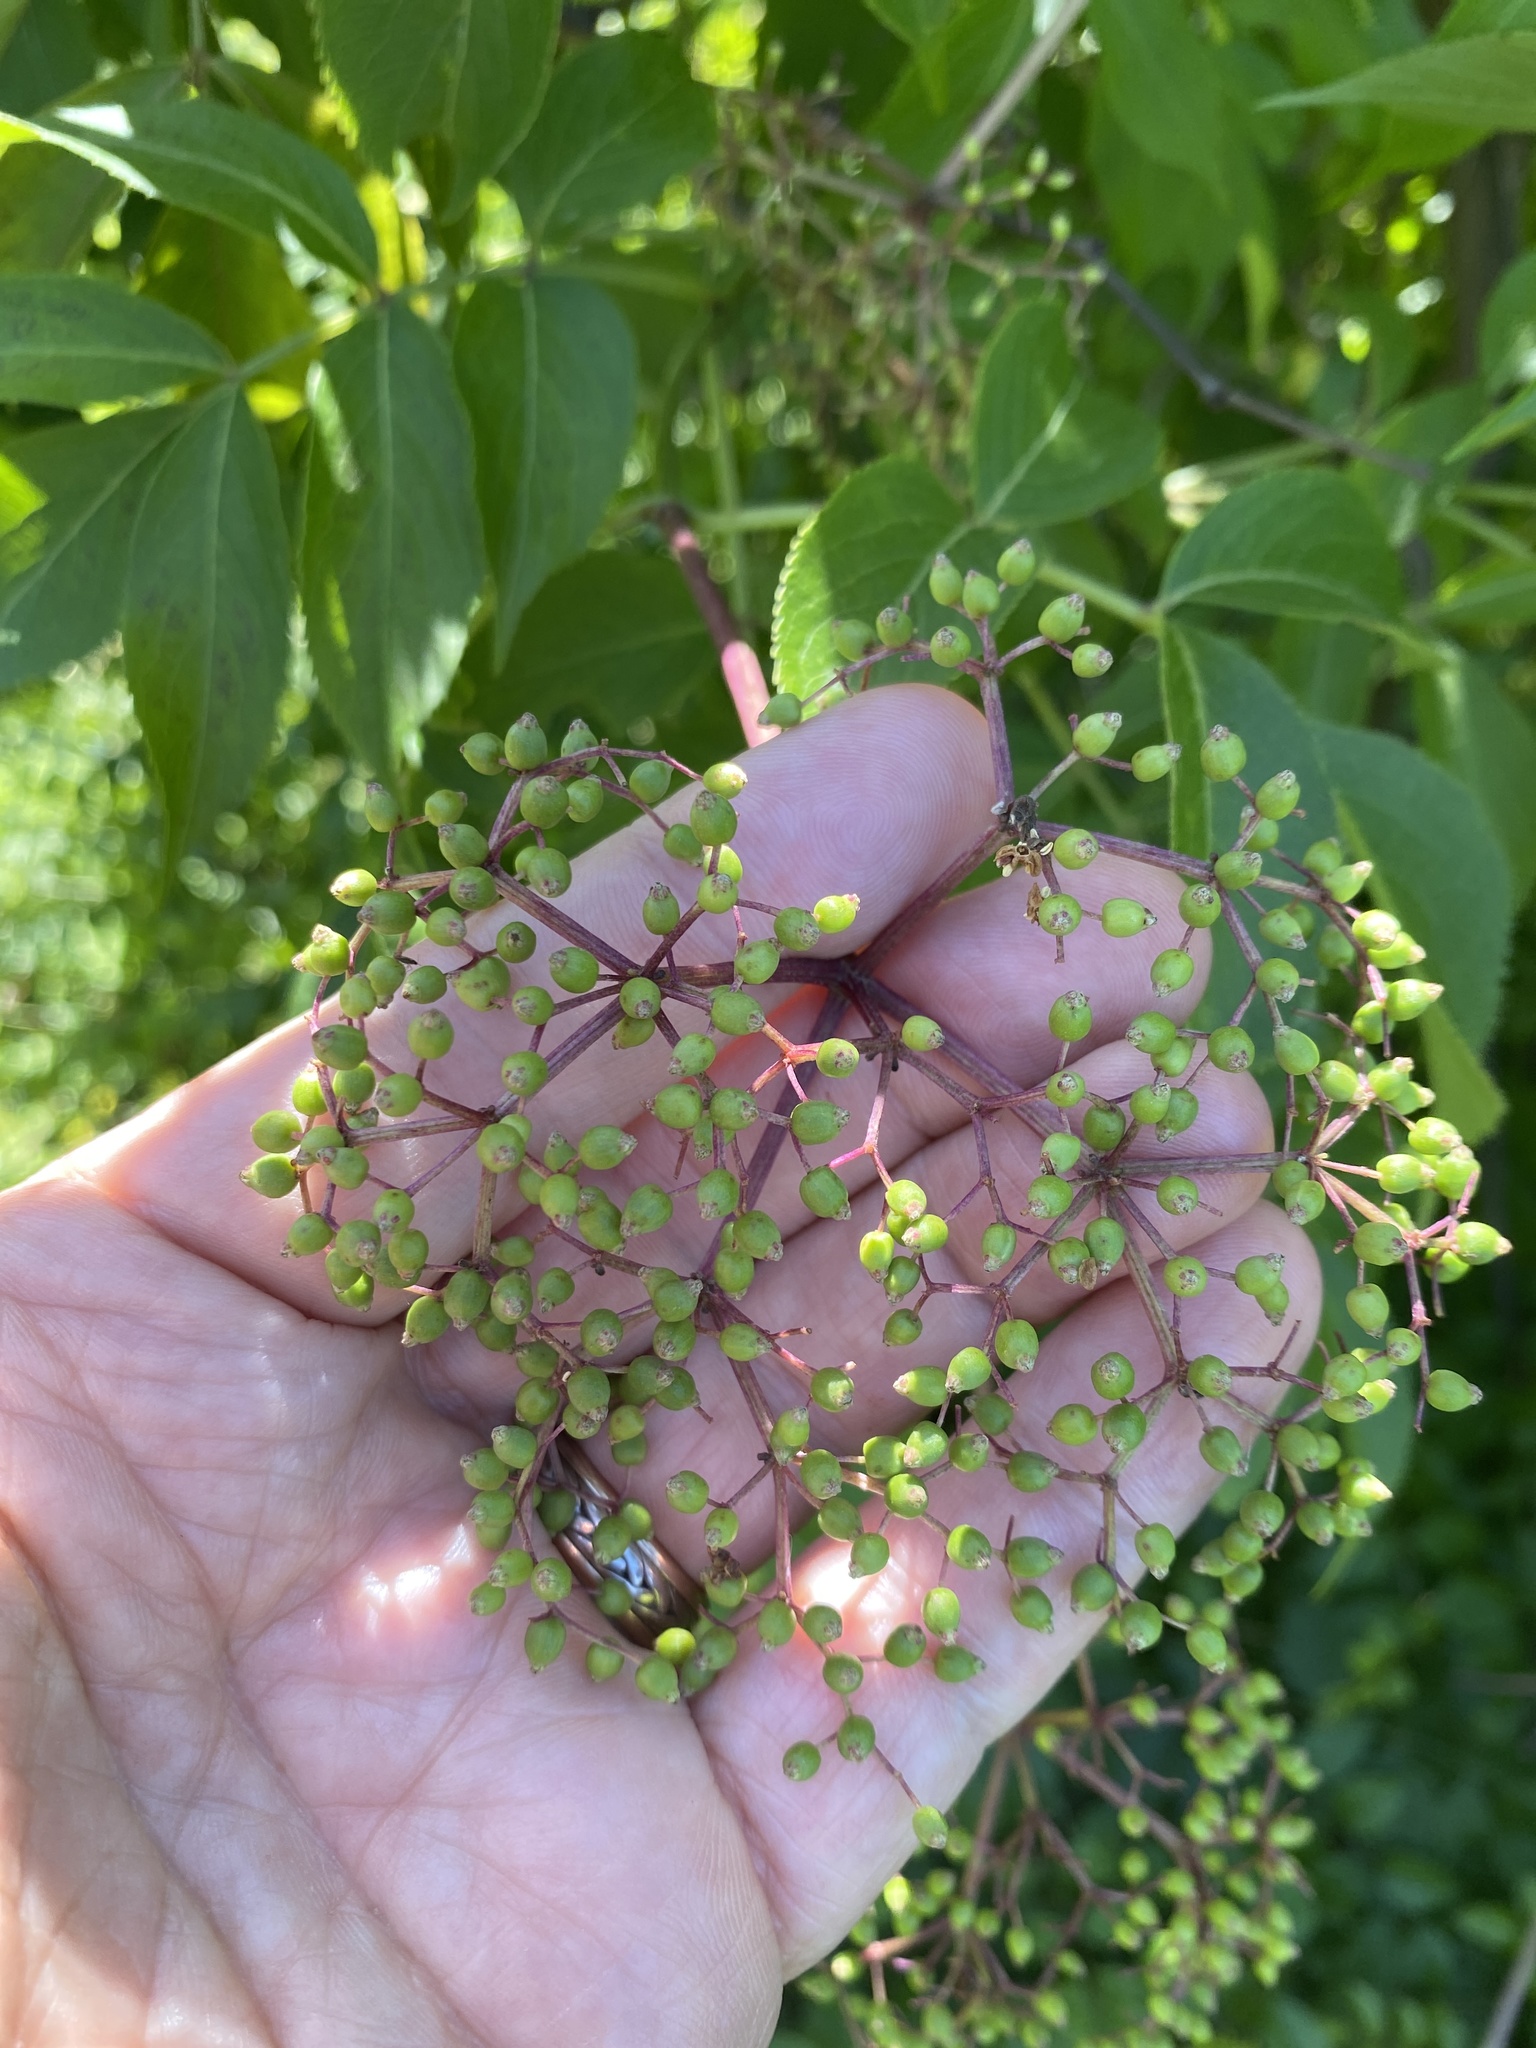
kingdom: Plantae
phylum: Tracheophyta
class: Magnoliopsida
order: Dipsacales
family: Viburnaceae
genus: Sambucus
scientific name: Sambucus canadensis
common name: American elder
